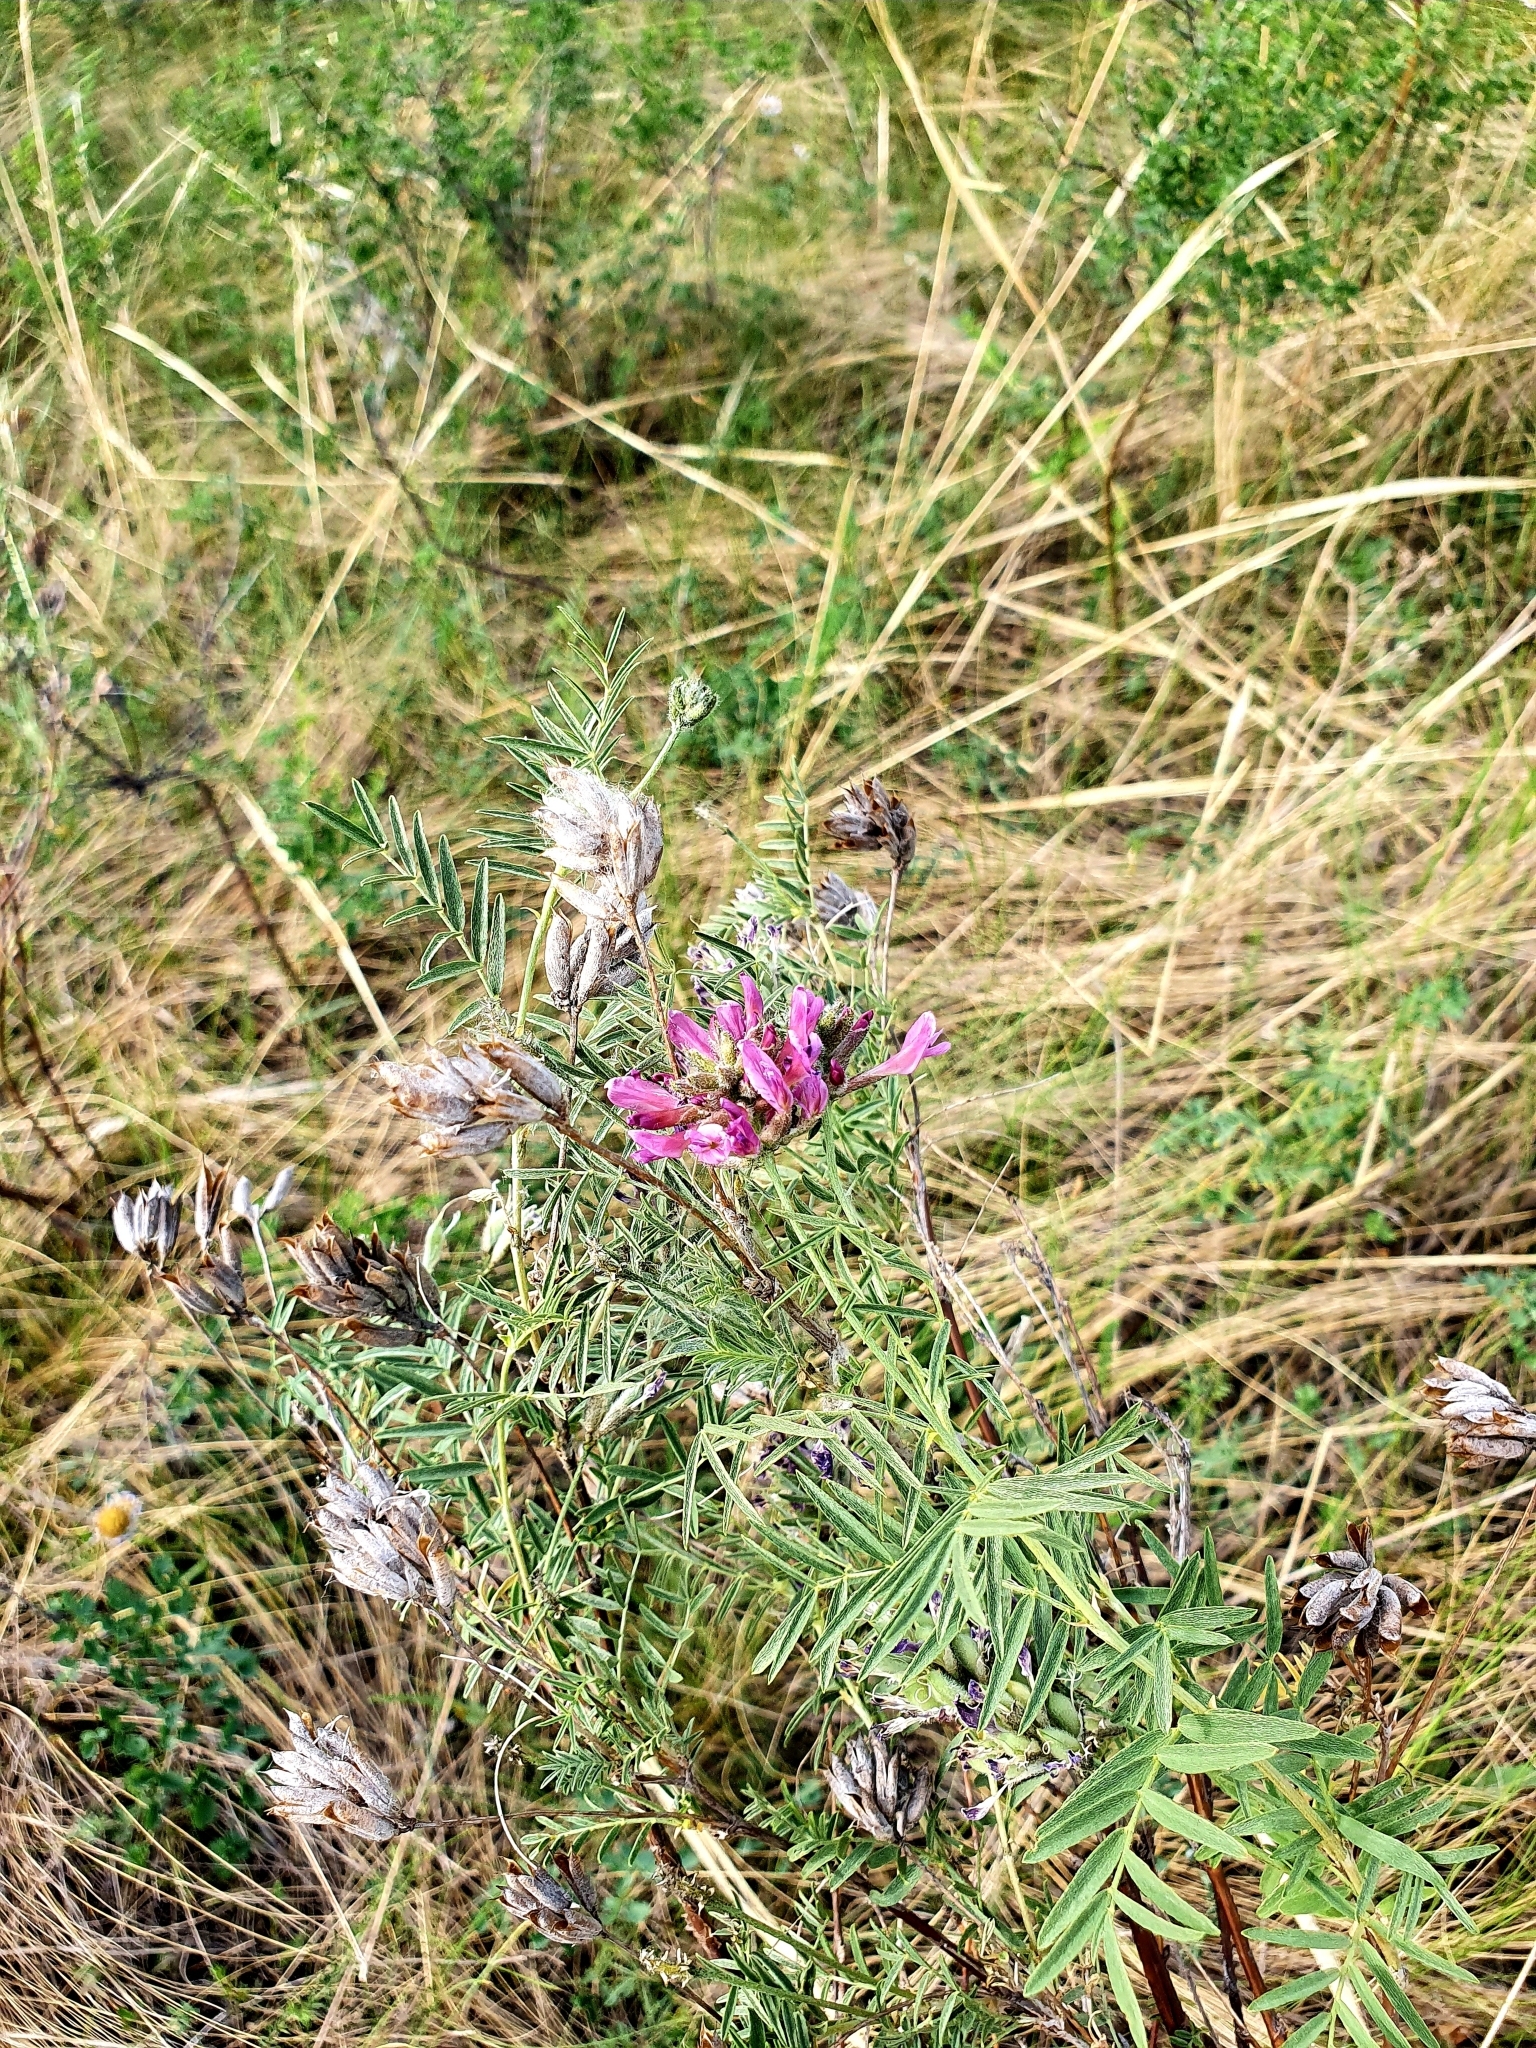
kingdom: Plantae
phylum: Tracheophyta
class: Magnoliopsida
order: Fabales
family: Fabaceae
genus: Astragalus
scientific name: Astragalus cornutus
